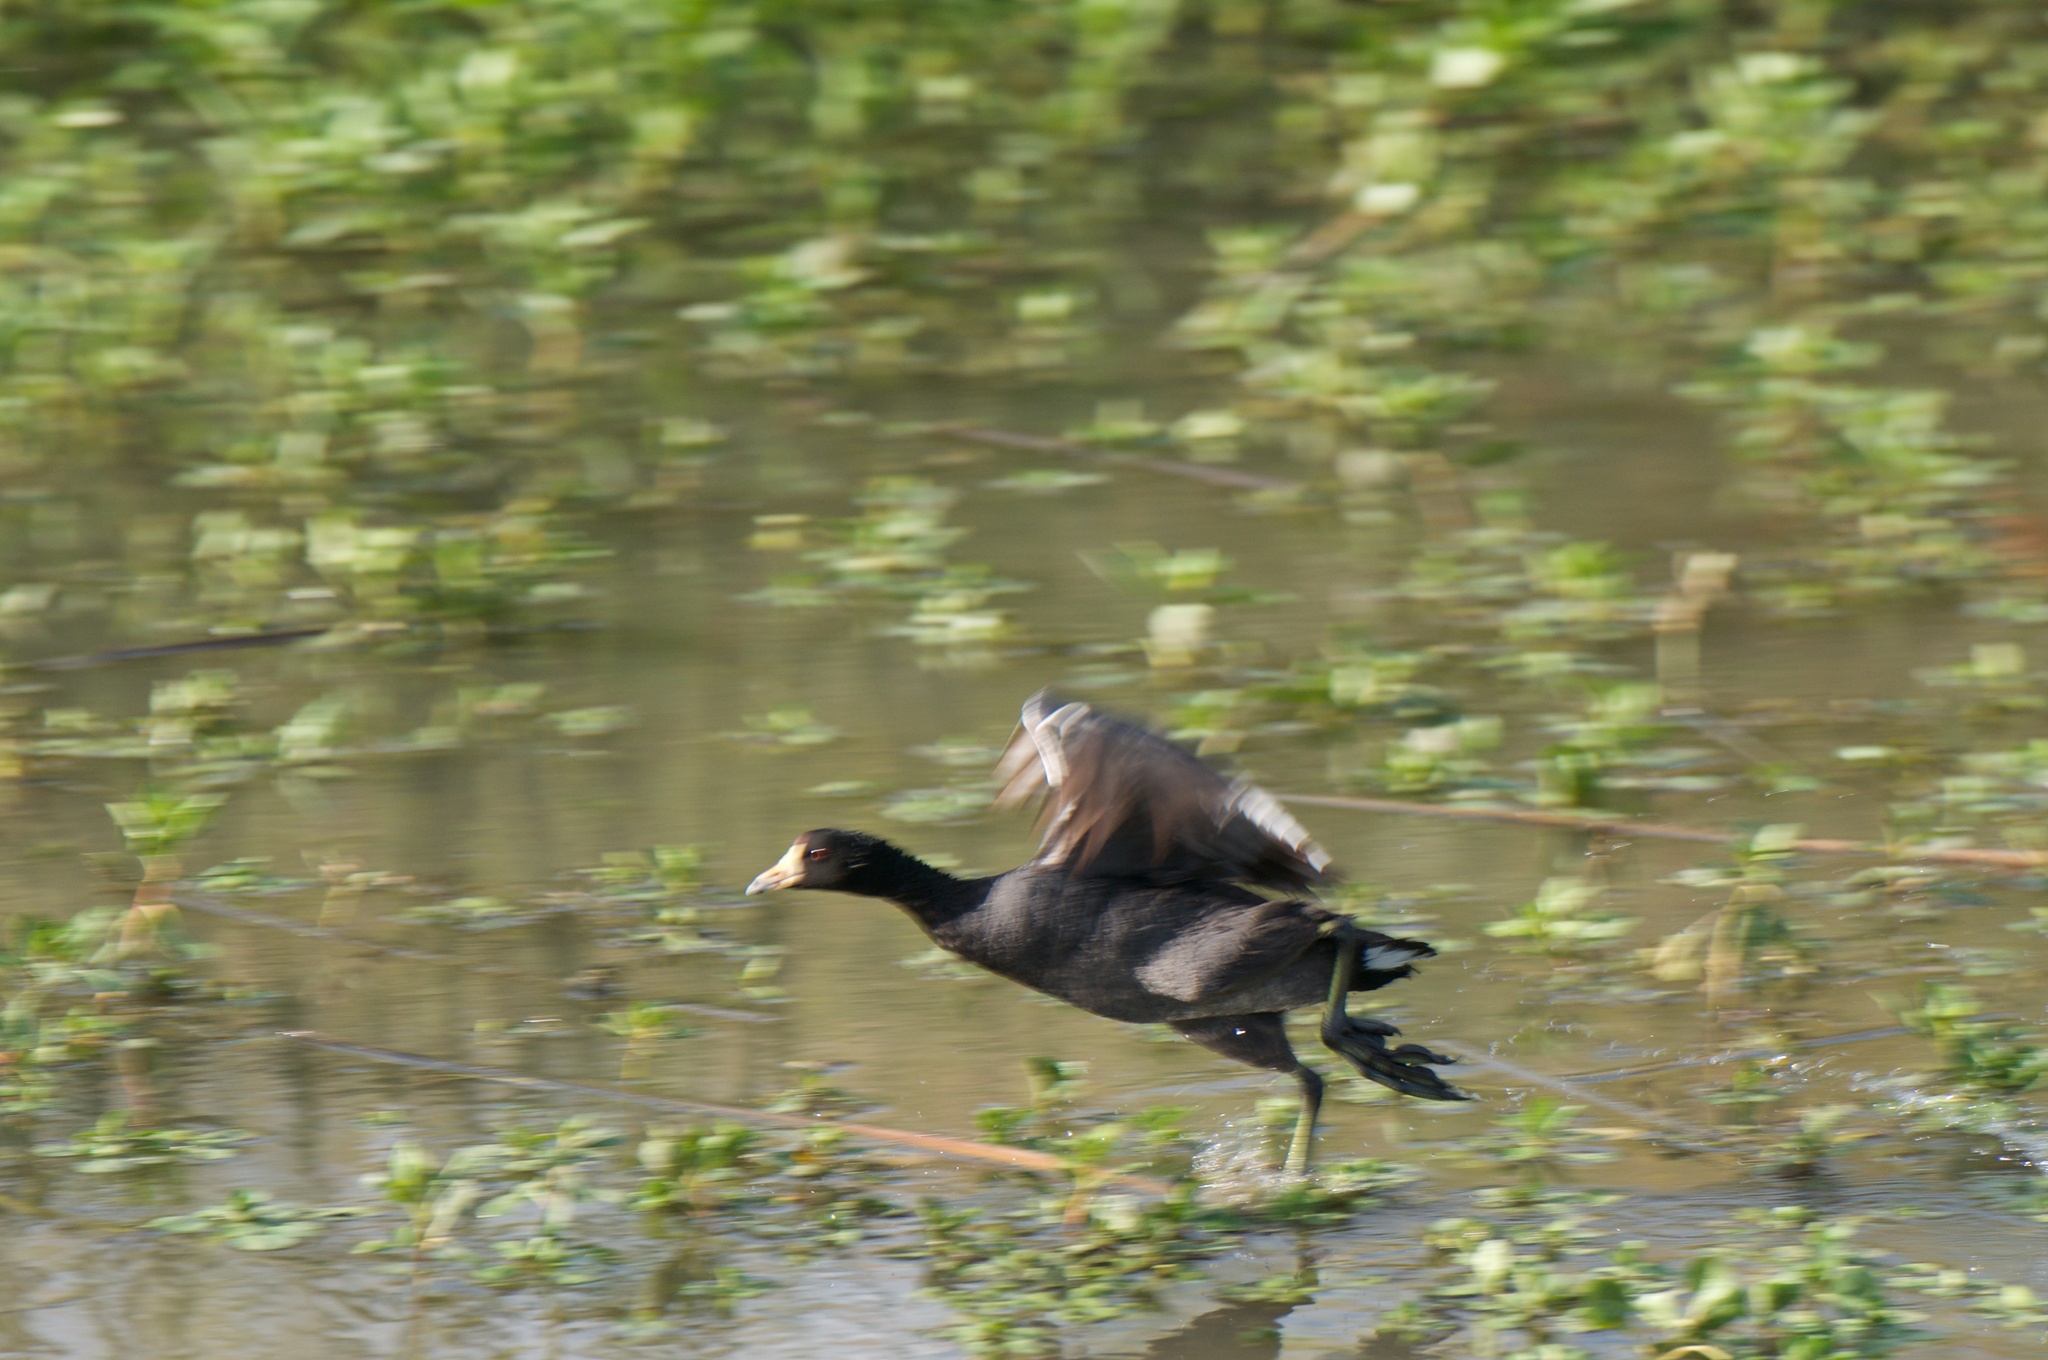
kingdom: Animalia
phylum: Chordata
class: Aves
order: Gruiformes
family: Rallidae
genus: Fulica
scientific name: Fulica americana
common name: American coot
